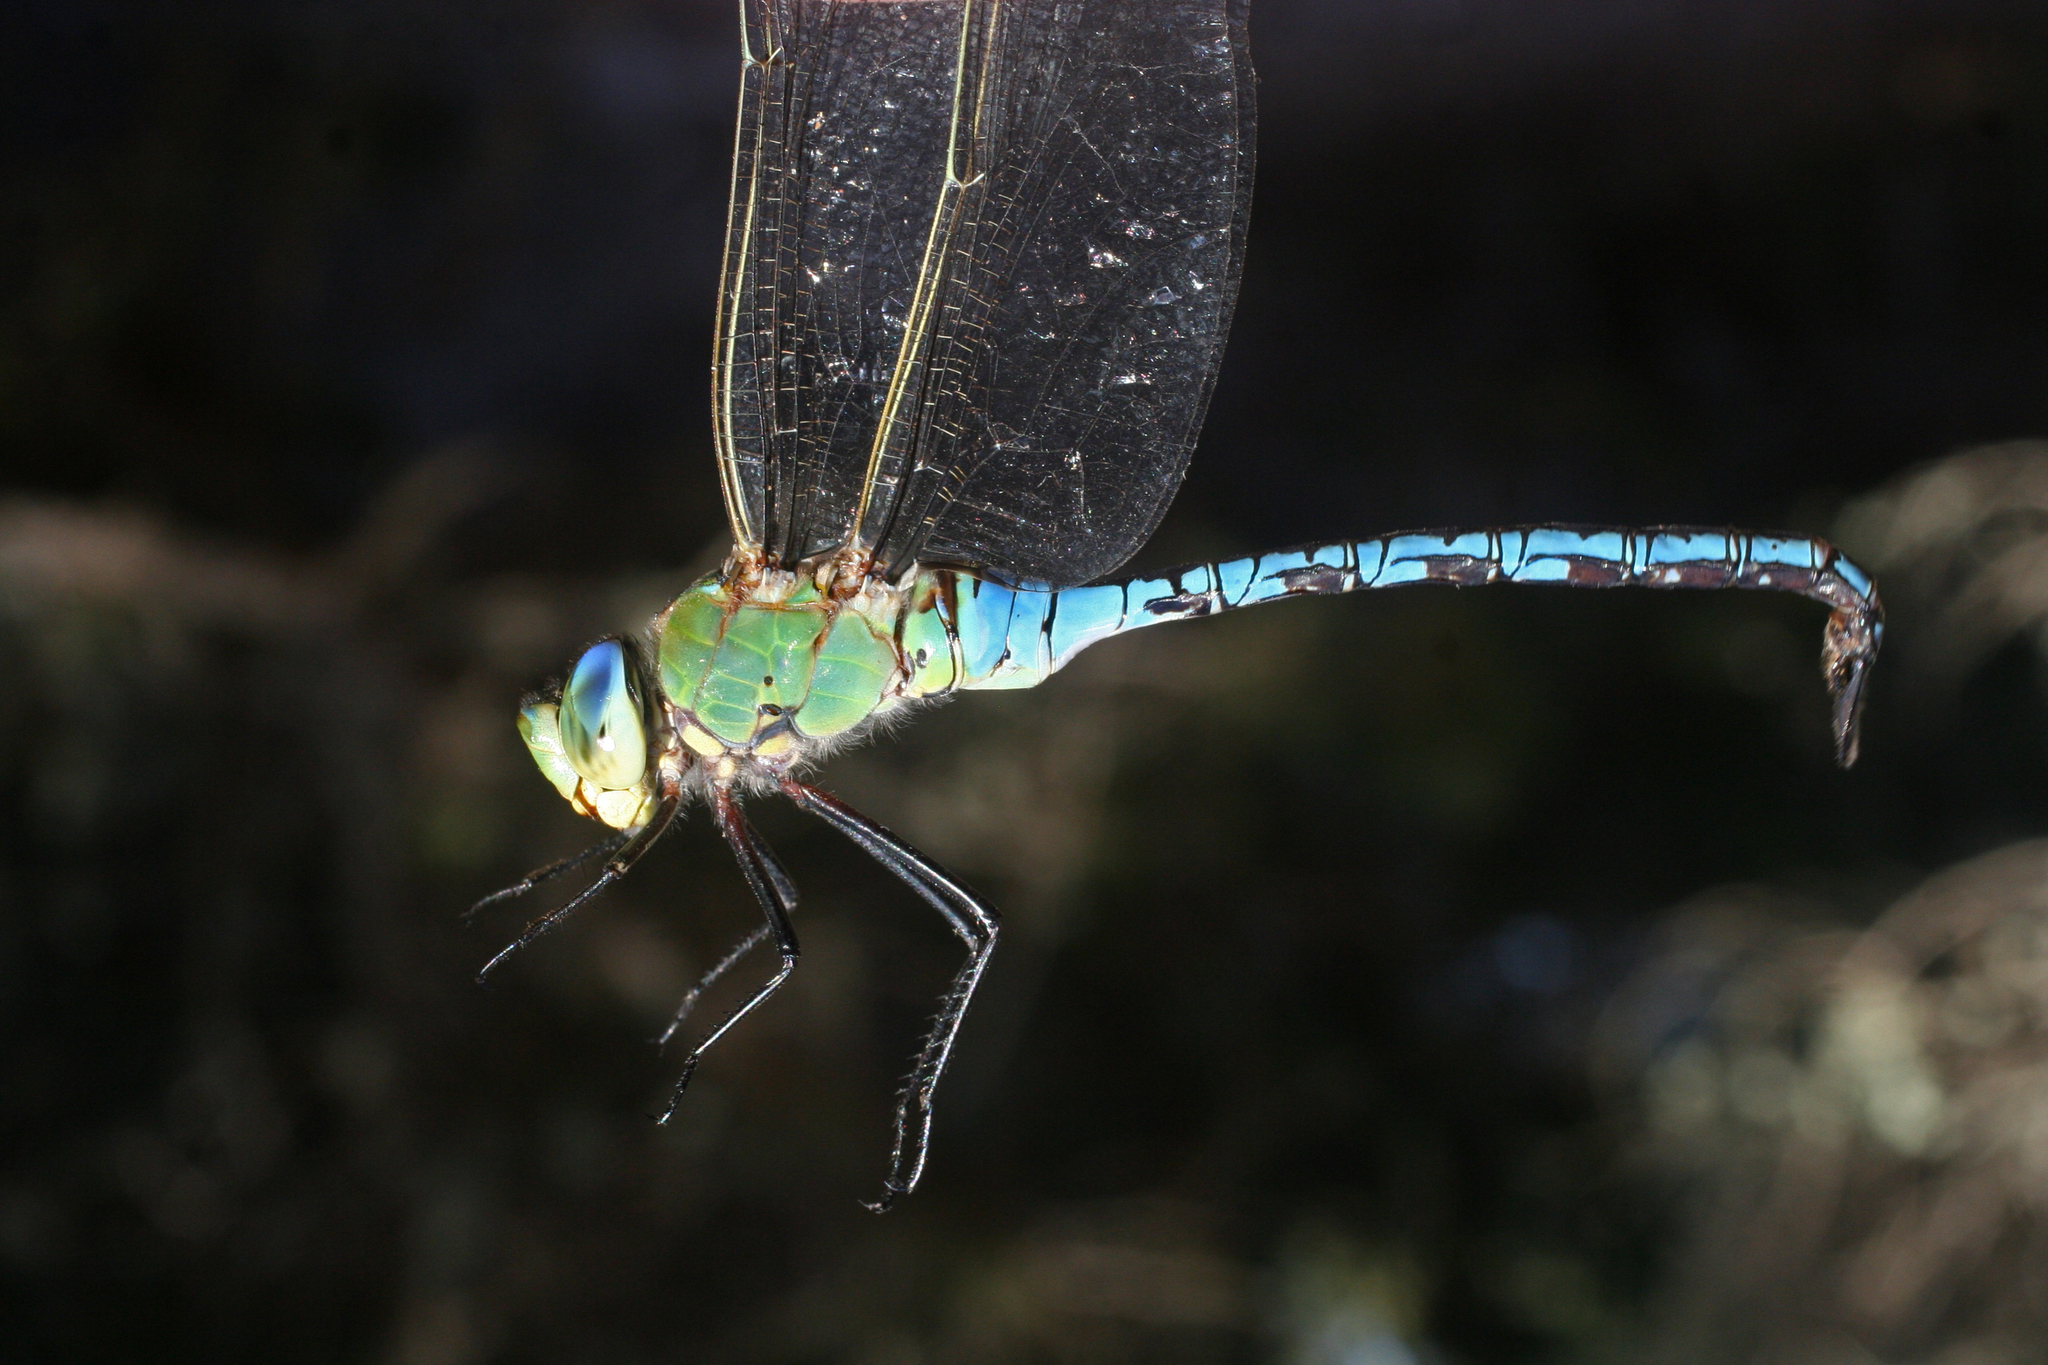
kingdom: Animalia
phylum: Arthropoda
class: Insecta
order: Odonata
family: Aeshnidae
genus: Anax
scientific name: Anax imperator
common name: Emperor dragonfly
